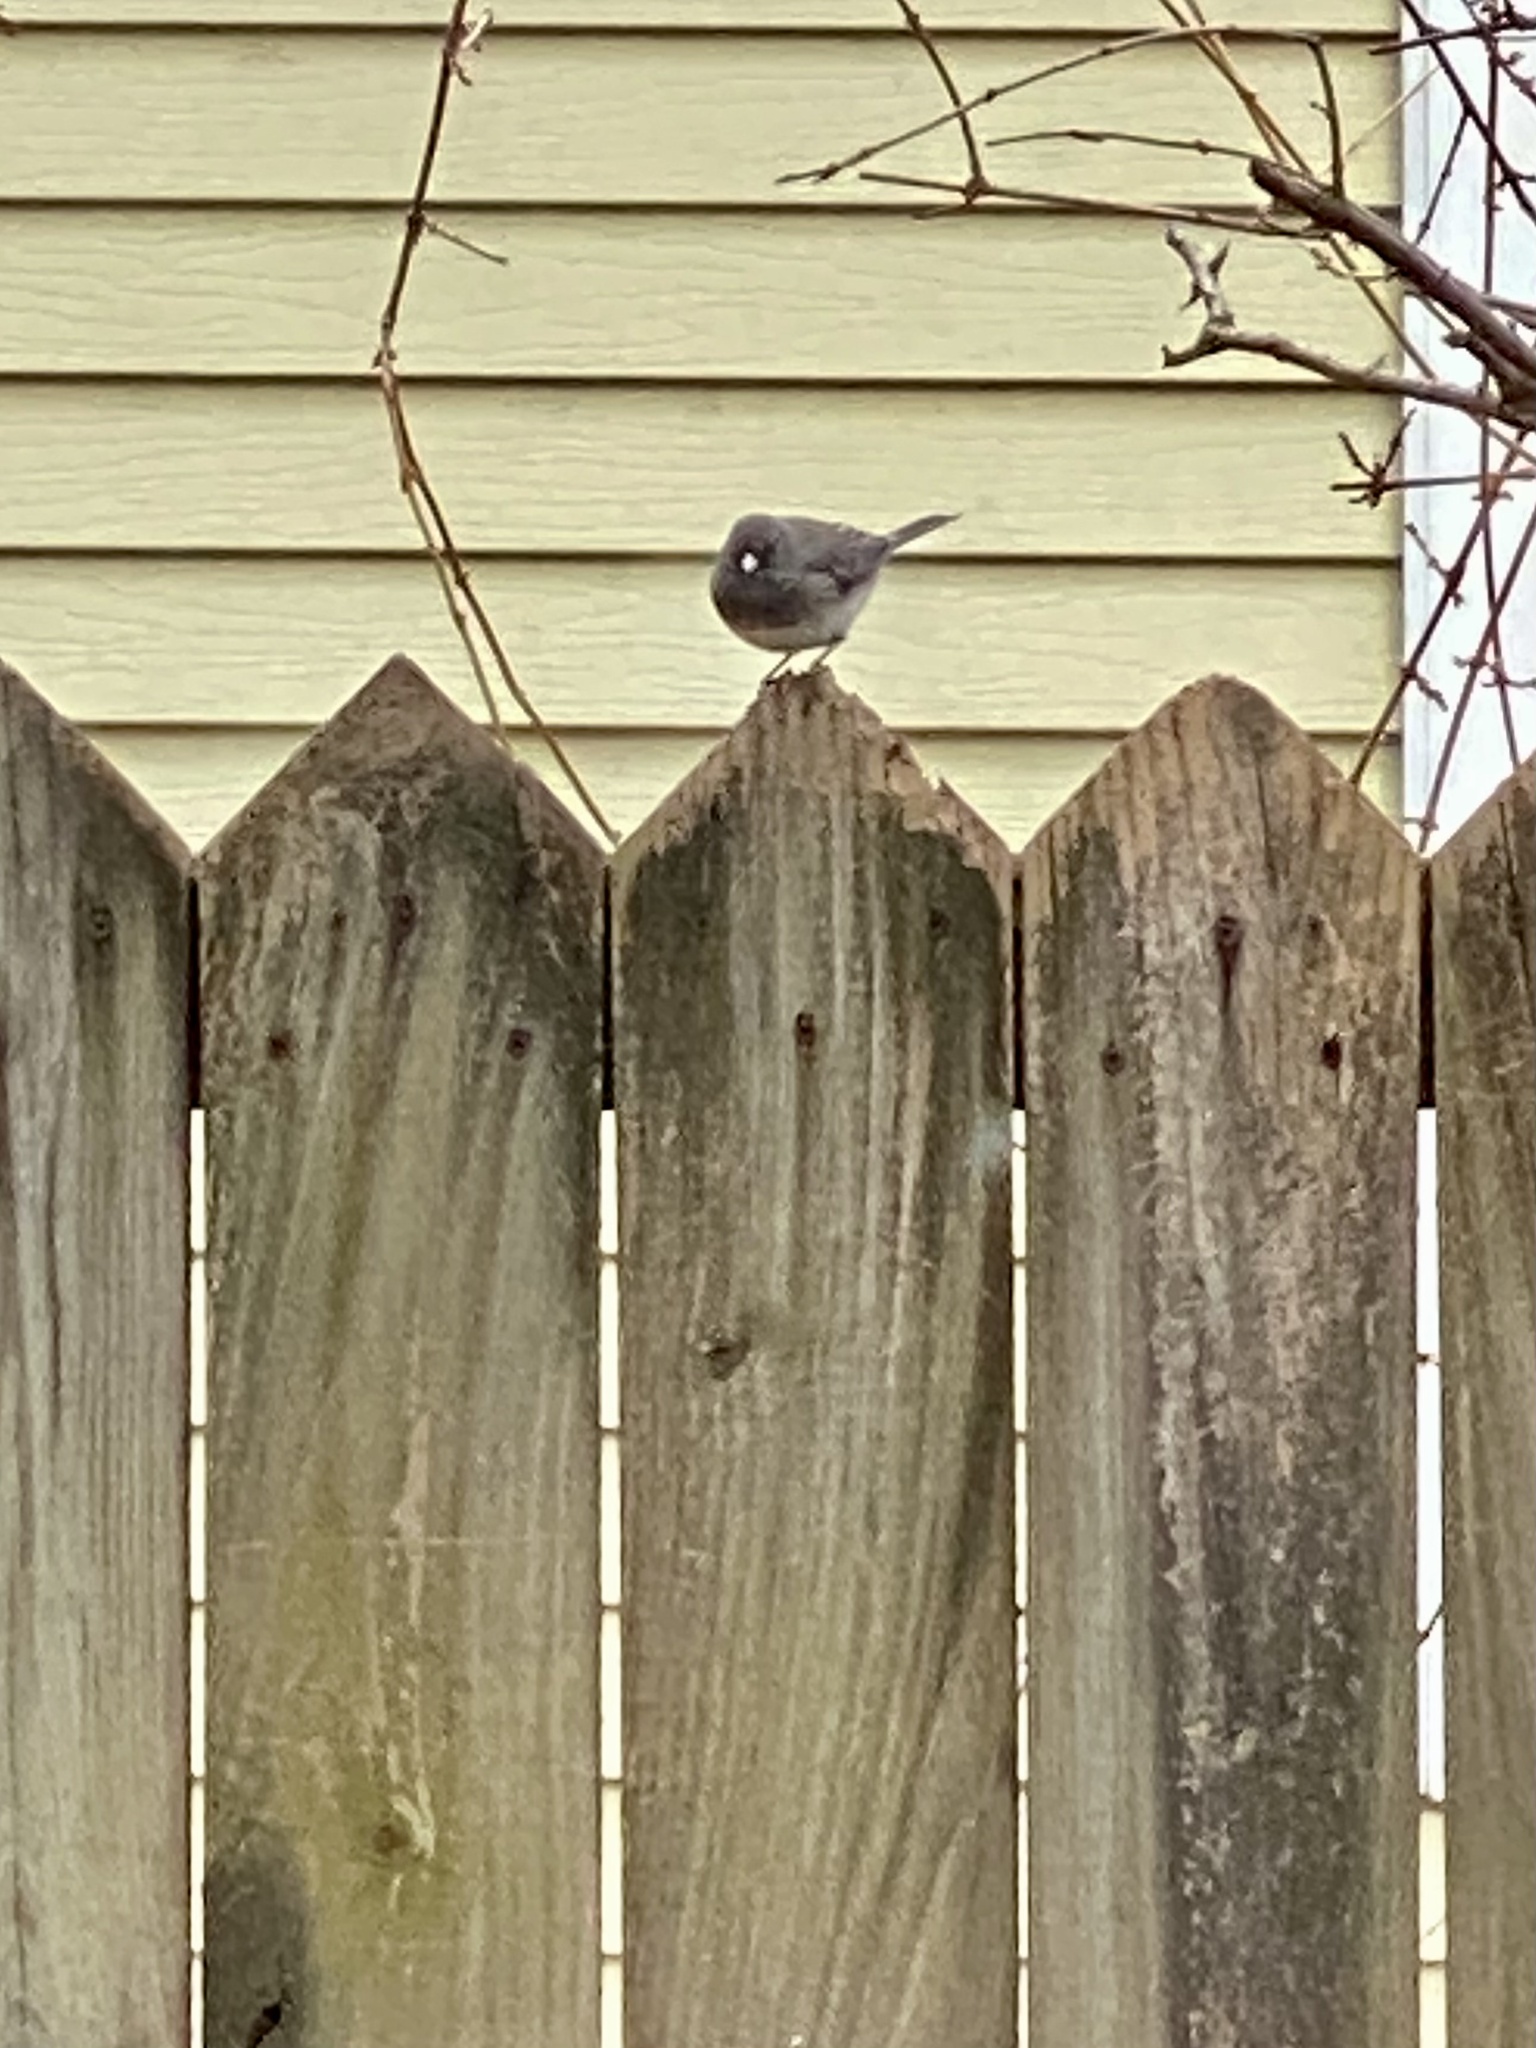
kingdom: Animalia
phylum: Chordata
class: Aves
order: Passeriformes
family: Passerellidae
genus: Junco
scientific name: Junco hyemalis
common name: Dark-eyed junco
